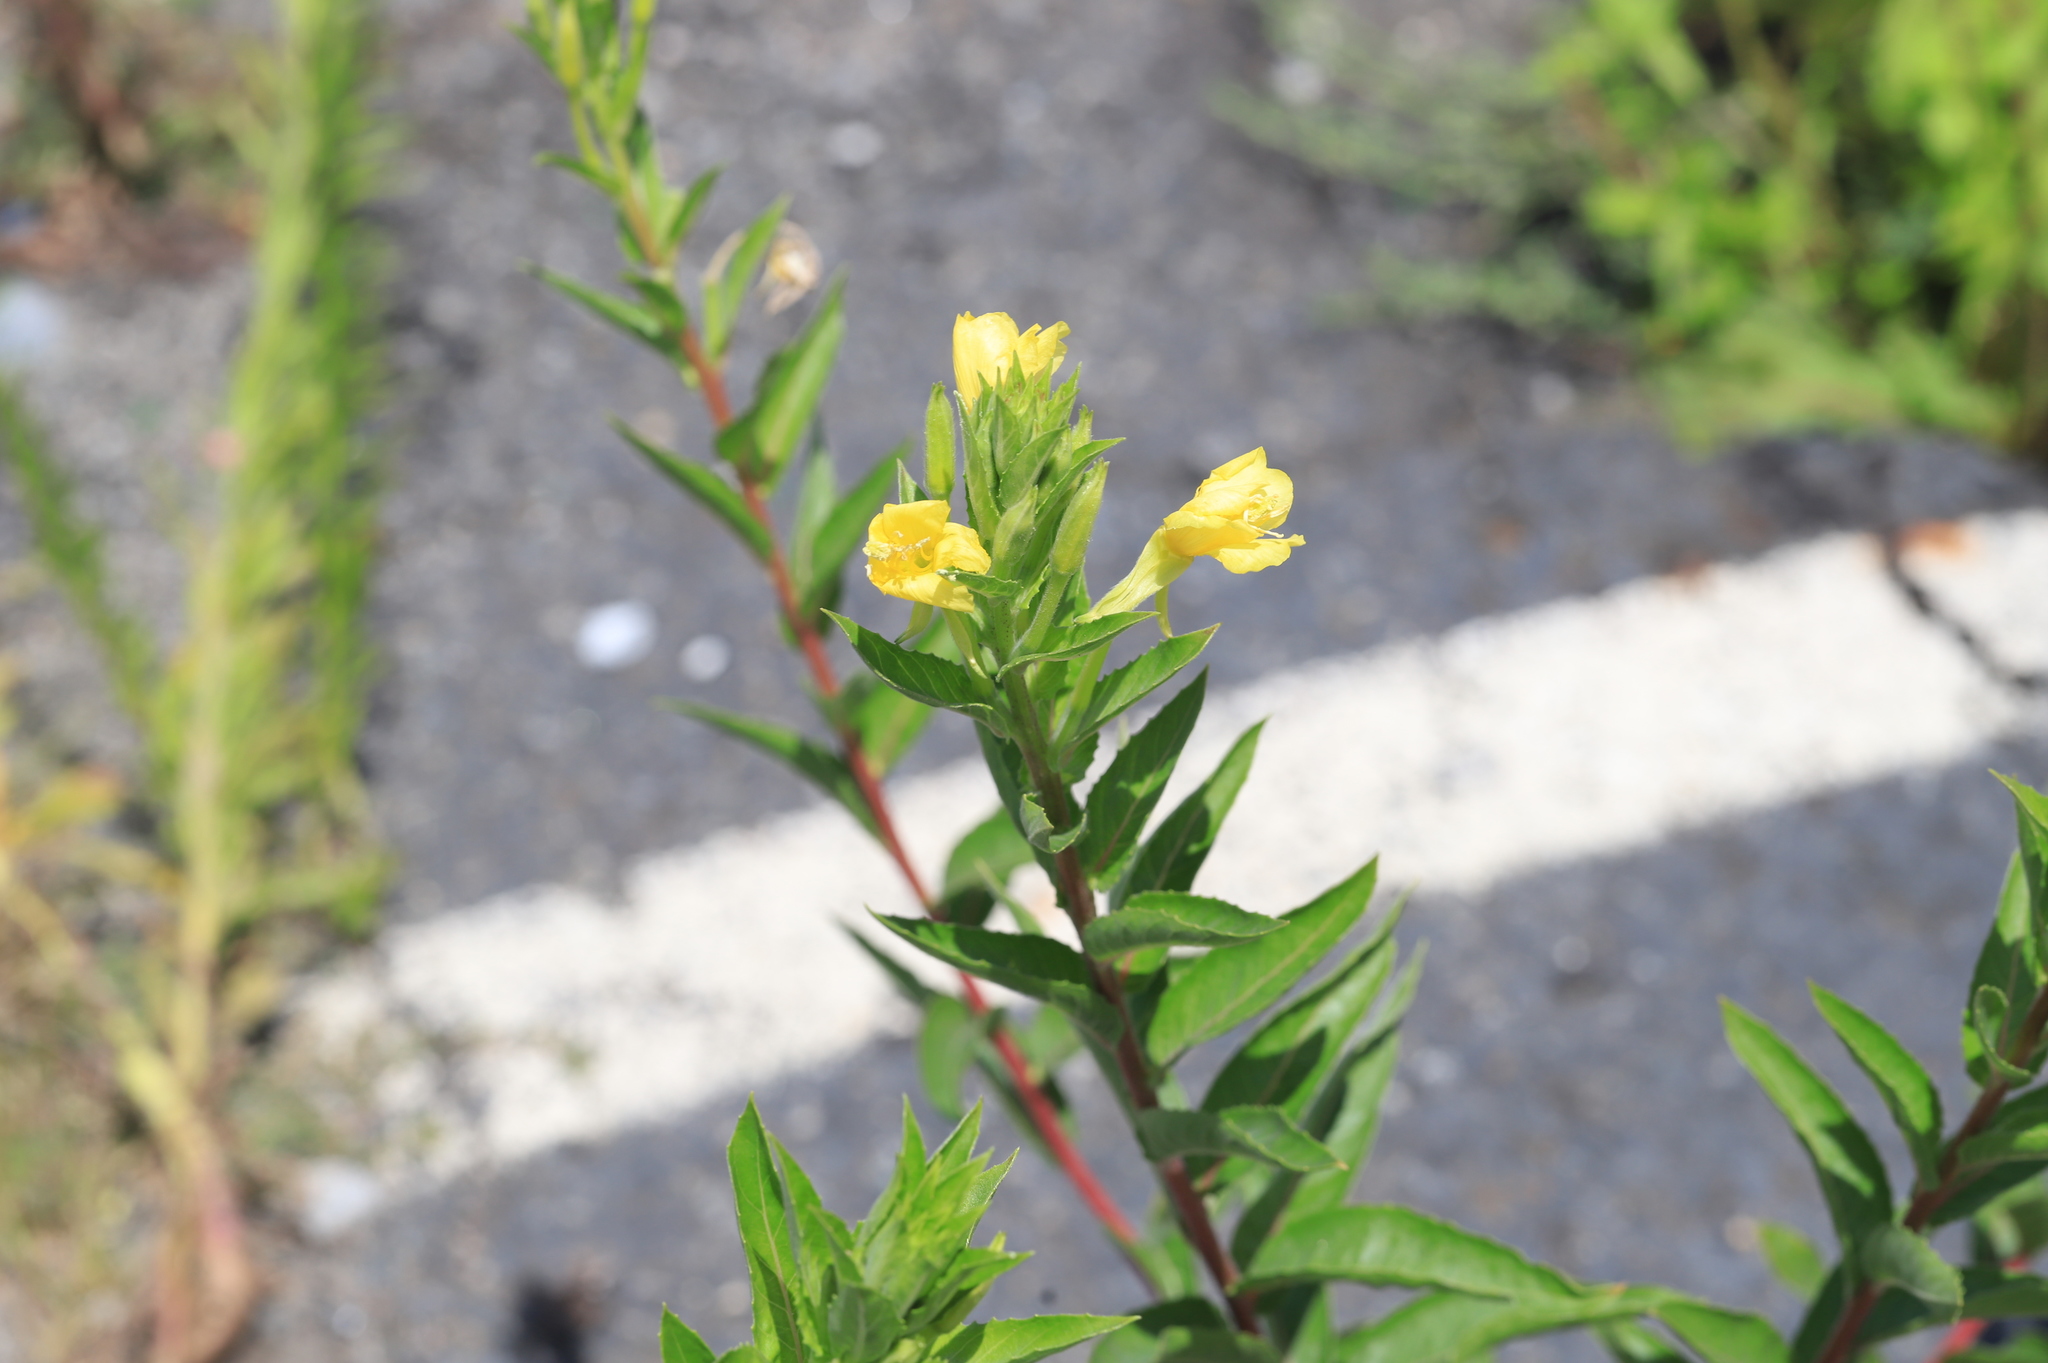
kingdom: Plantae
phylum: Tracheophyta
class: Magnoliopsida
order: Myrtales
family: Onagraceae
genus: Oenothera
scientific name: Oenothera biennis
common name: Common evening-primrose
